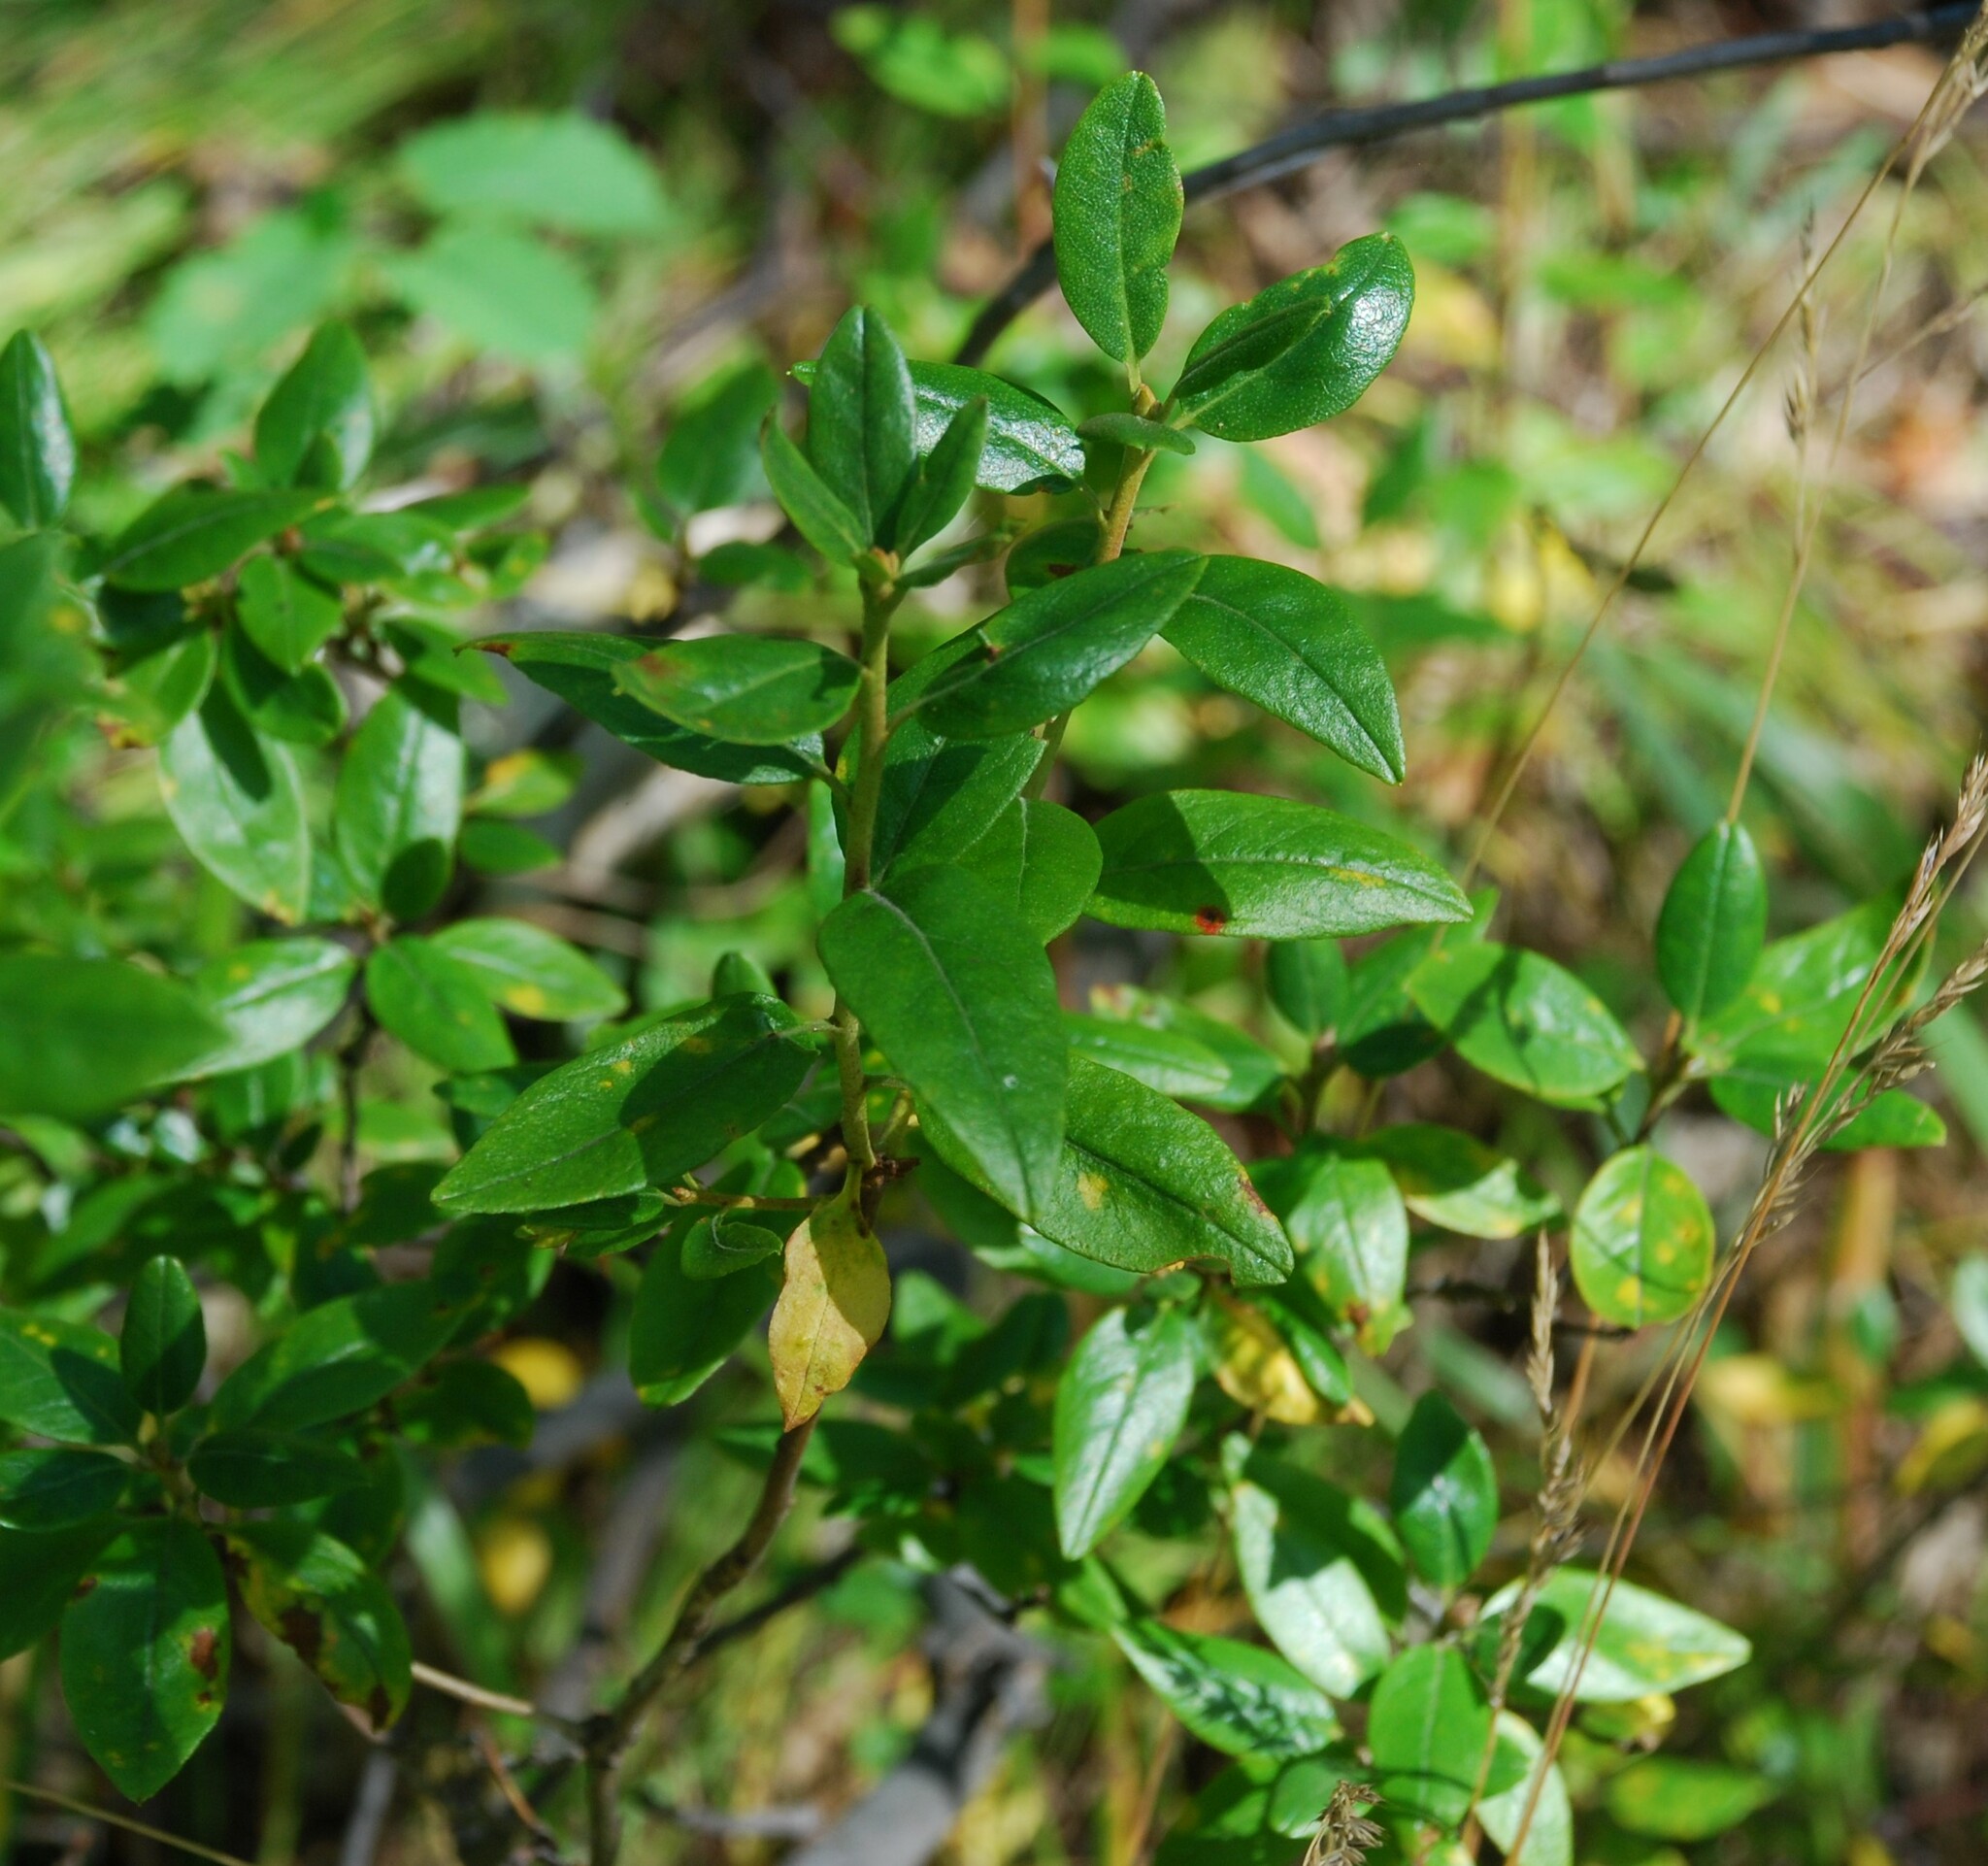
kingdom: Plantae
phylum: Tracheophyta
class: Magnoliopsida
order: Ericales
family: Ericaceae
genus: Rhododendron
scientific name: Rhododendron dauricum
